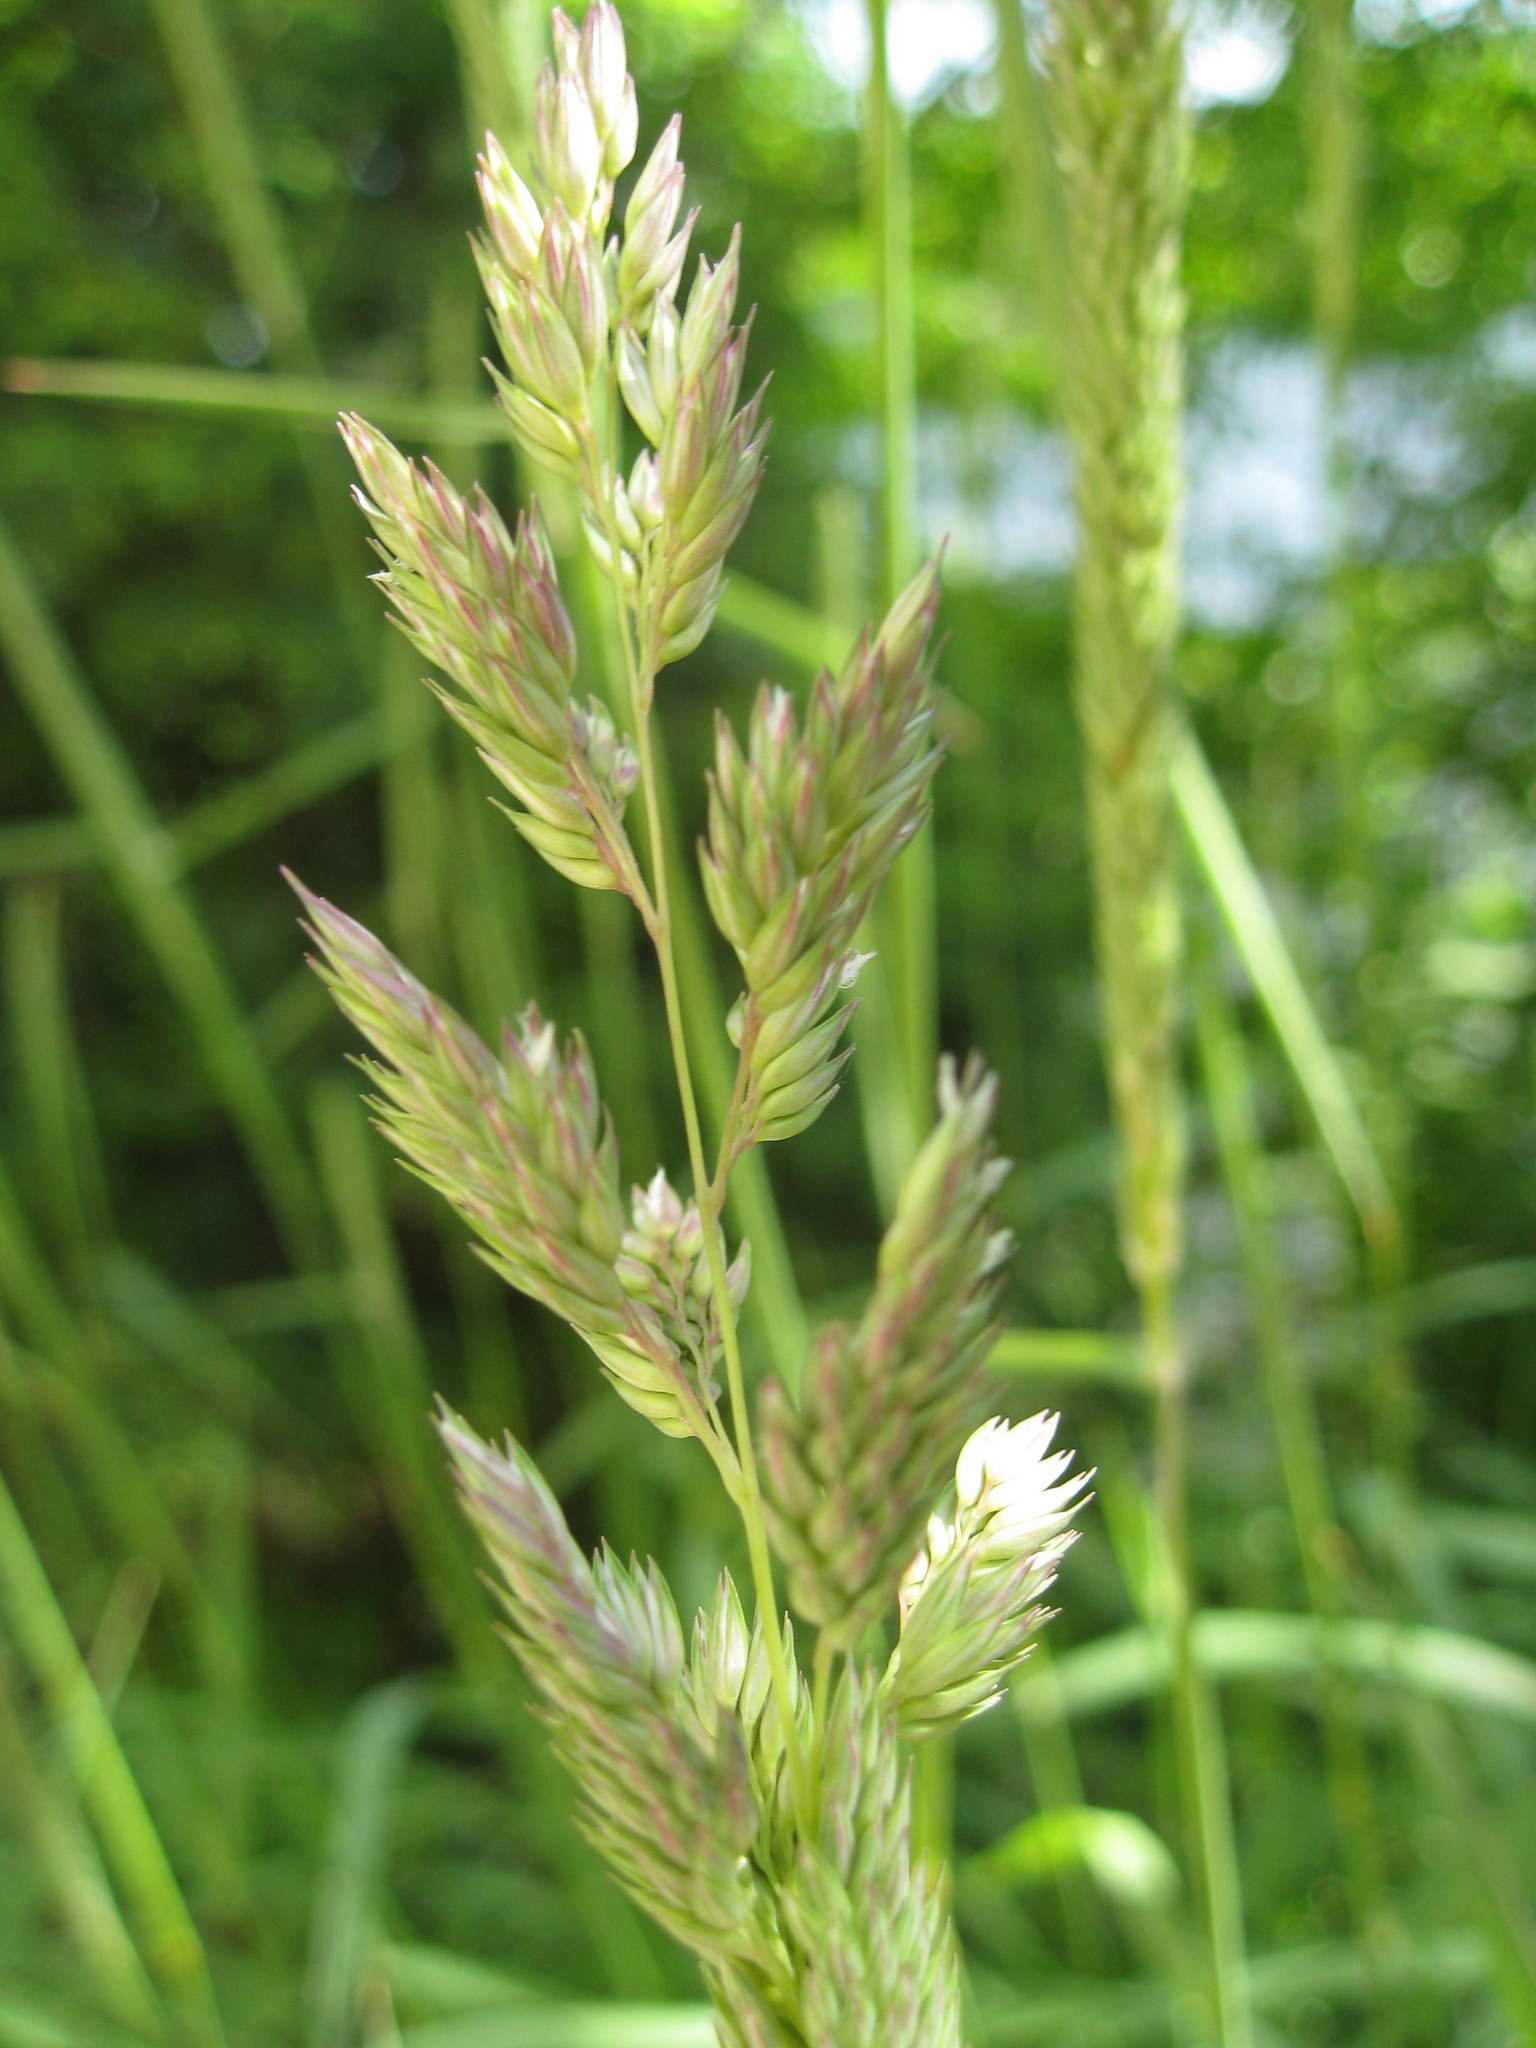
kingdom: Plantae
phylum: Tracheophyta
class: Liliopsida
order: Poales
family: Poaceae
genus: Phalaris
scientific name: Phalaris arundinacea
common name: Reed canary-grass
